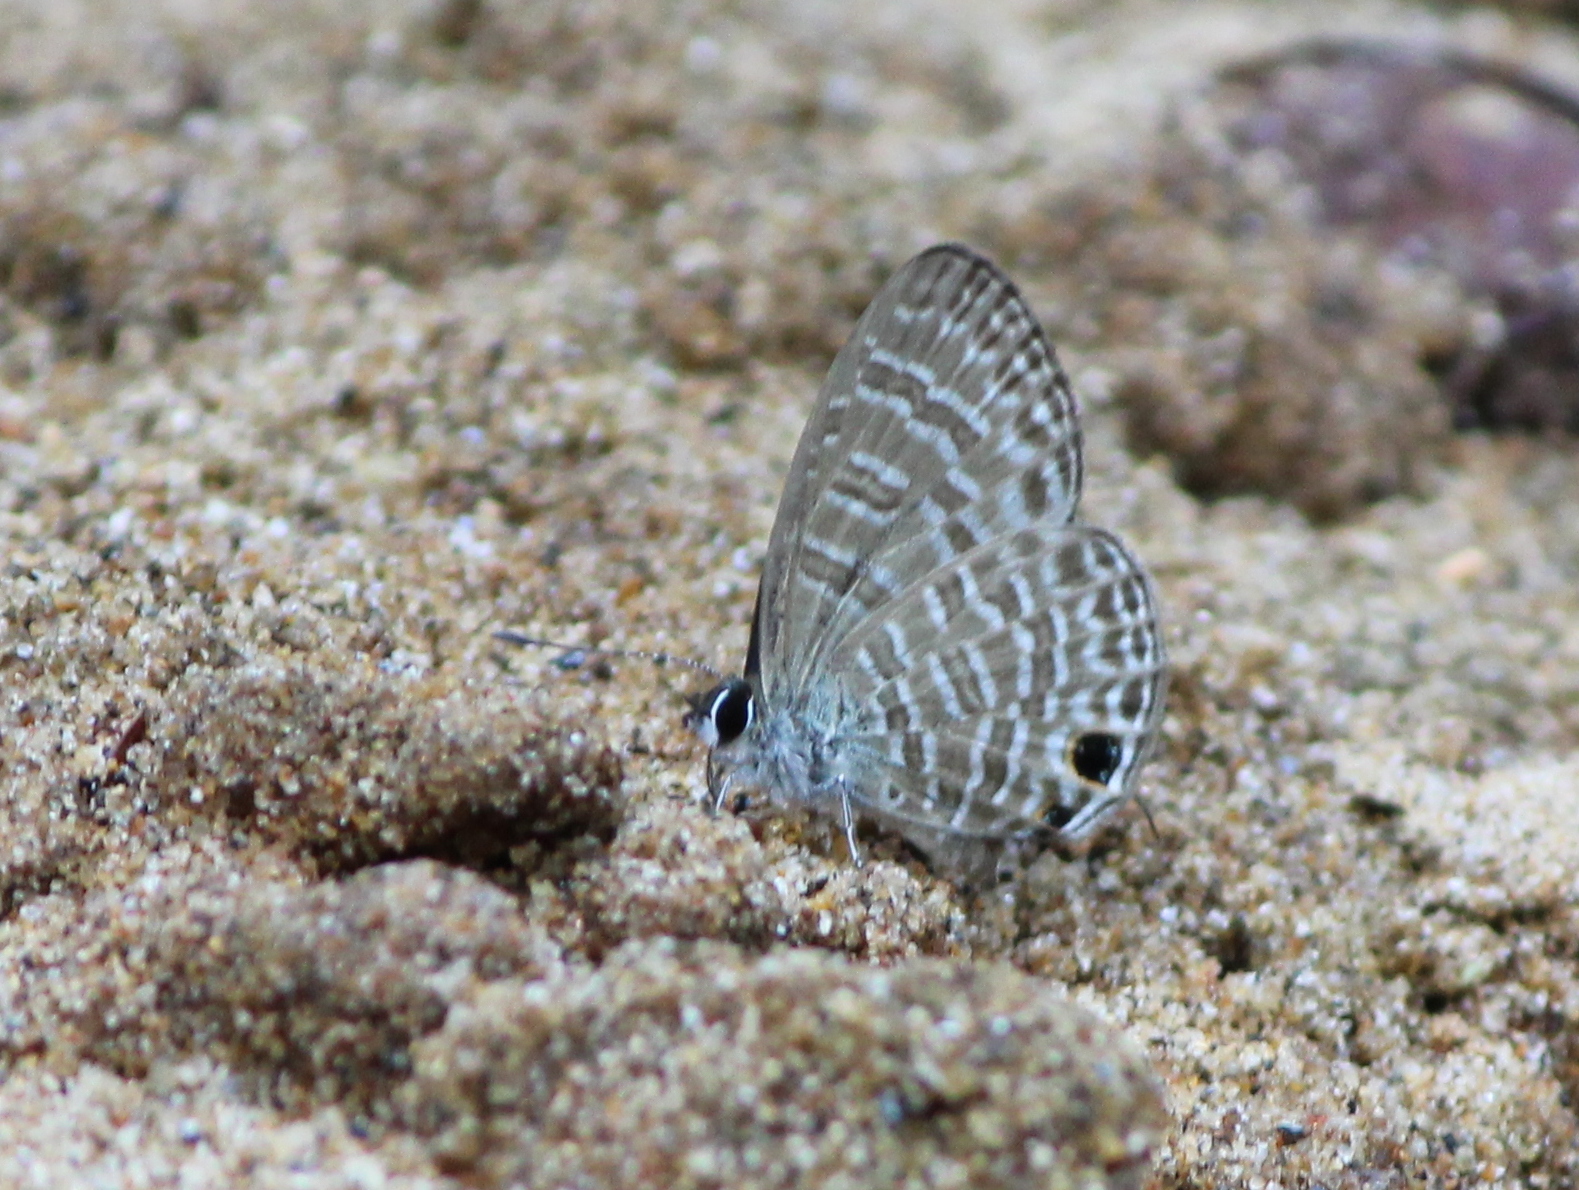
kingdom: Animalia
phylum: Arthropoda
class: Insecta
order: Lepidoptera
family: Lycaenidae
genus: Nacaduba
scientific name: Nacaduba sinhala
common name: Pale ceylon line blue
